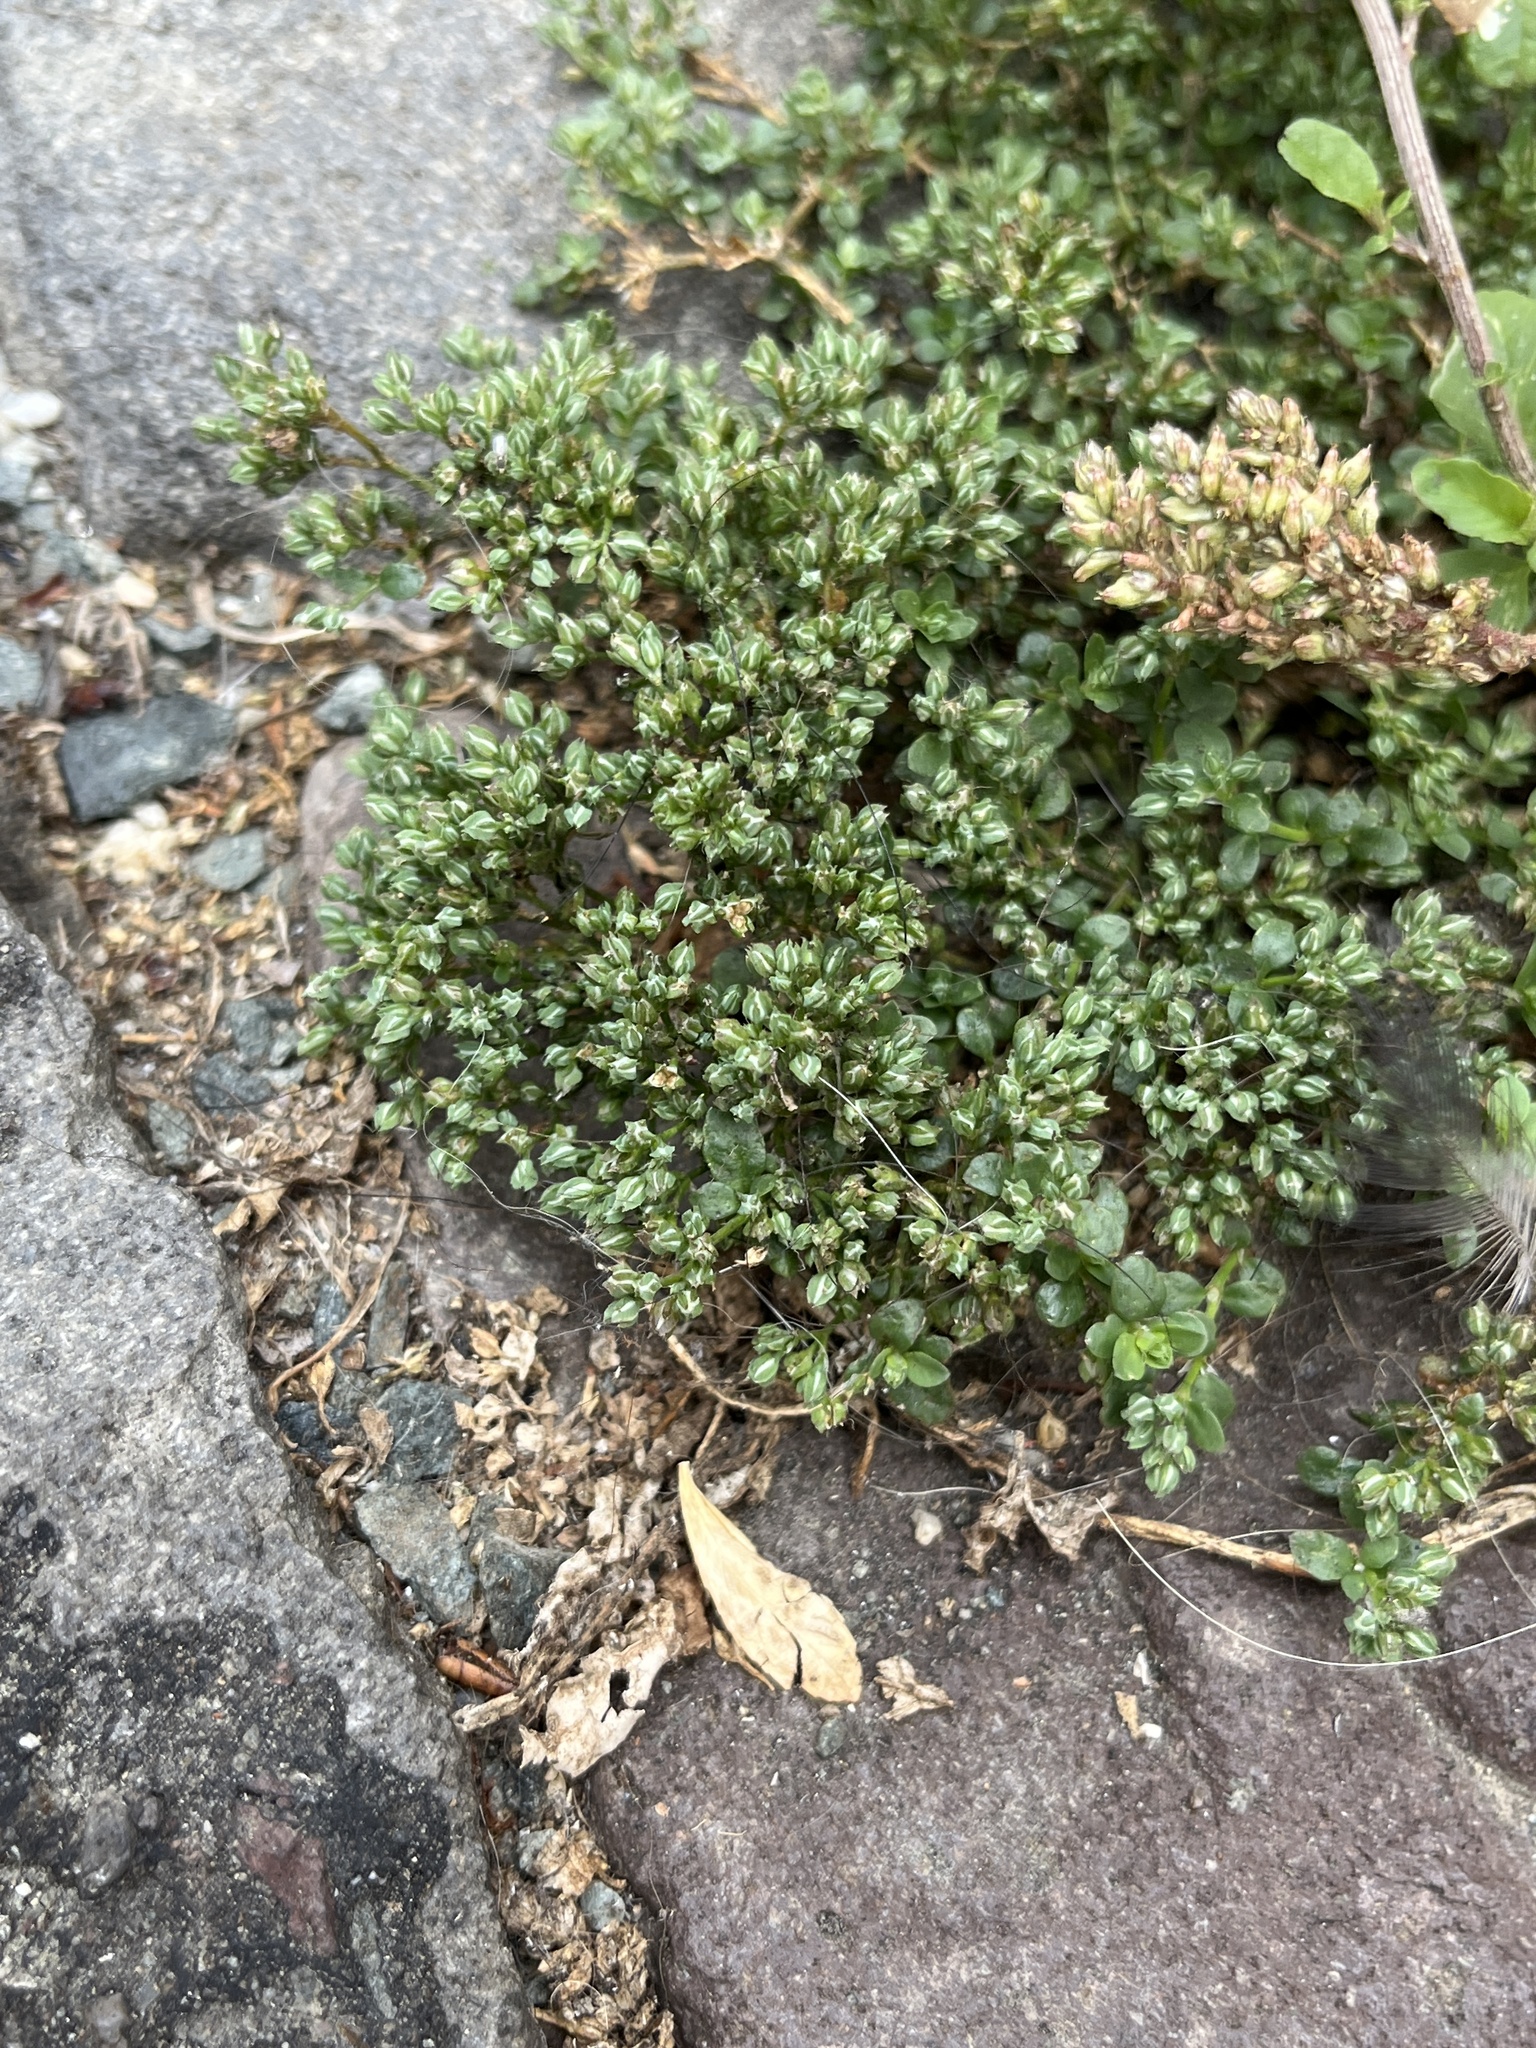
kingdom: Plantae
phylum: Tracheophyta
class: Magnoliopsida
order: Caryophyllales
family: Caryophyllaceae
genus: Polycarpon
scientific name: Polycarpon tetraphyllum
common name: Four-leaved all-seed
